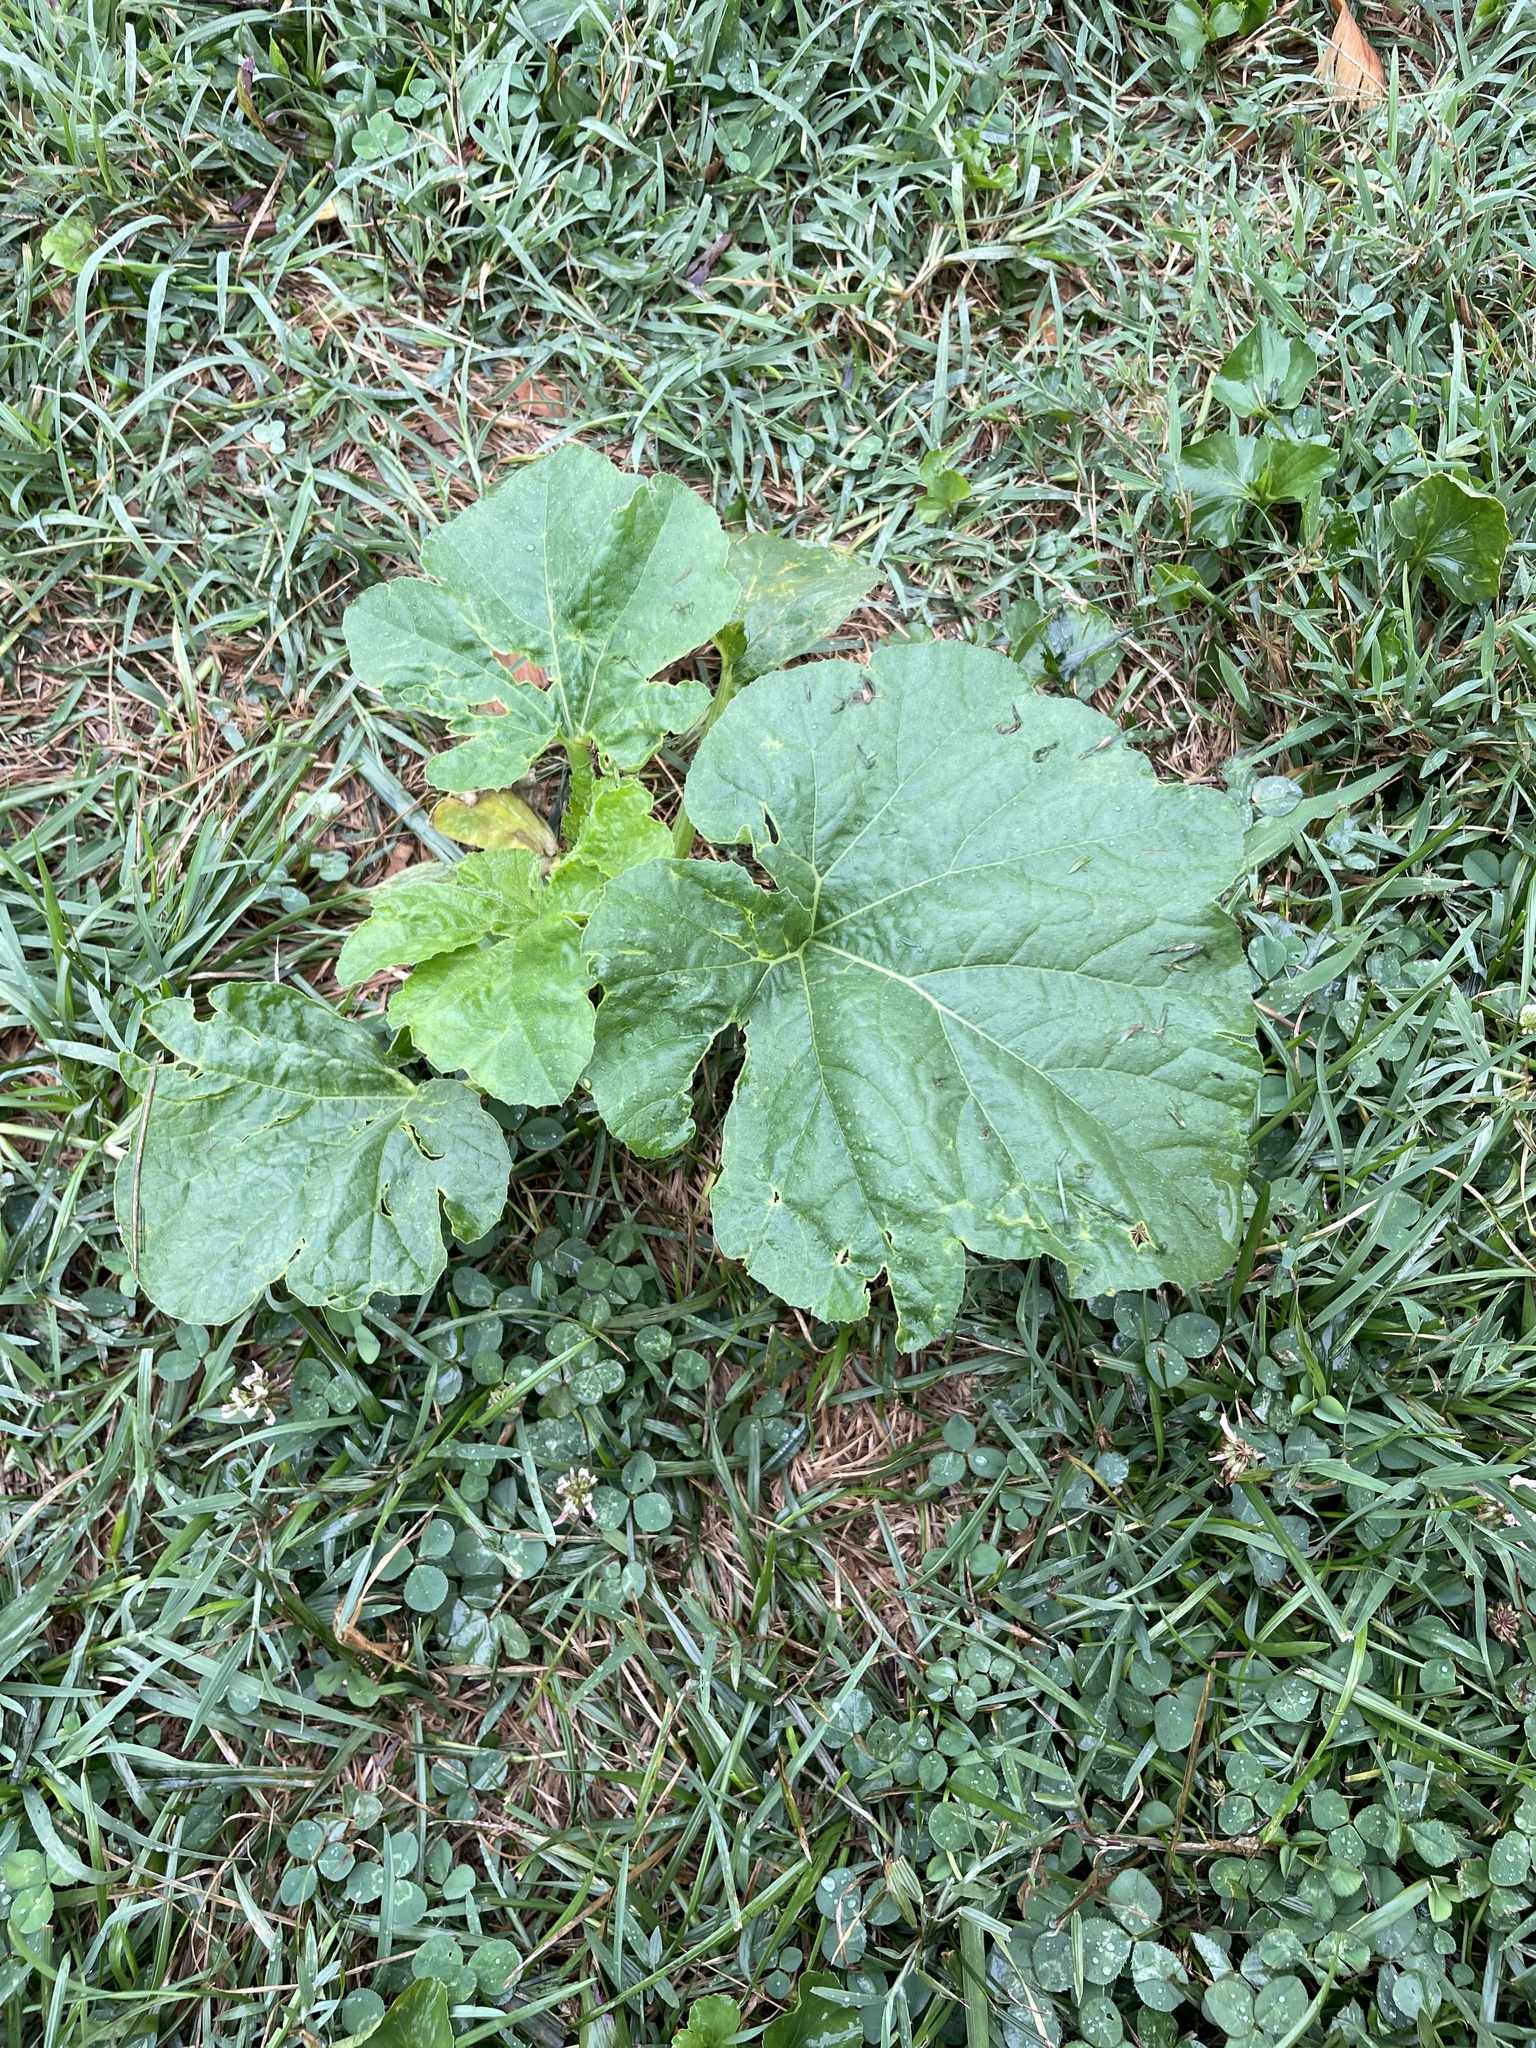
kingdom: Plantae
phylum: Tracheophyta
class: Magnoliopsida
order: Cucurbitales
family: Cucurbitaceae
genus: Cucurbita
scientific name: Cucurbita pepo
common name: Marrow
